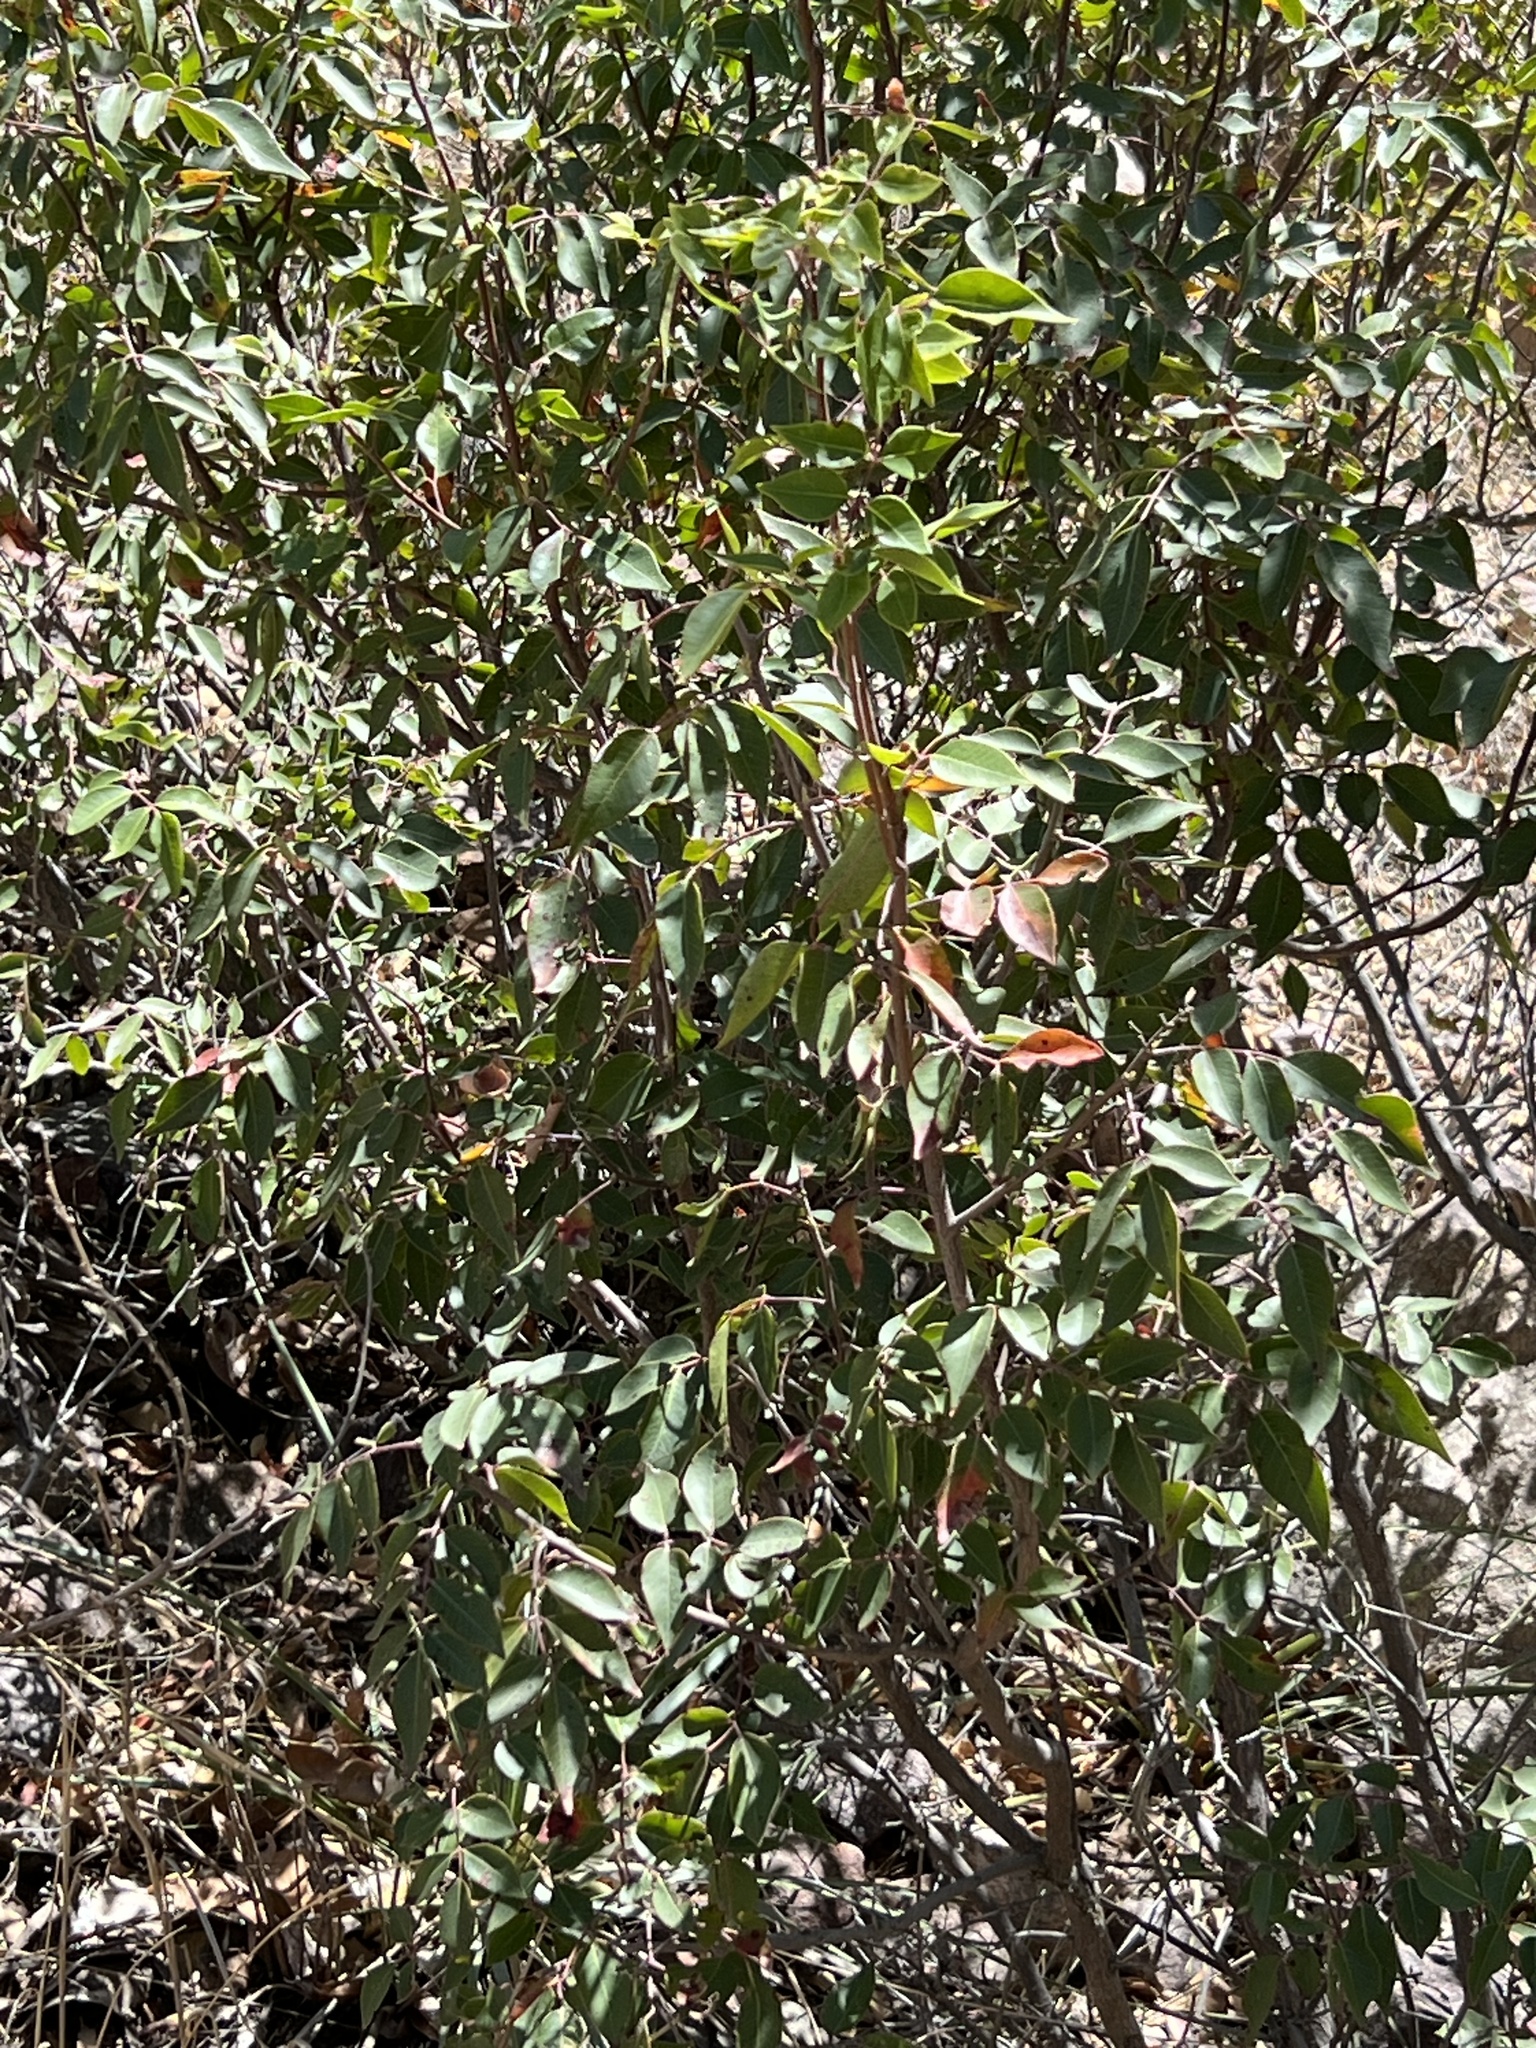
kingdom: Plantae
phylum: Tracheophyta
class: Magnoliopsida
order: Sapindales
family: Anacardiaceae
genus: Rhus
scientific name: Rhus virens
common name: Evergreen sumac
